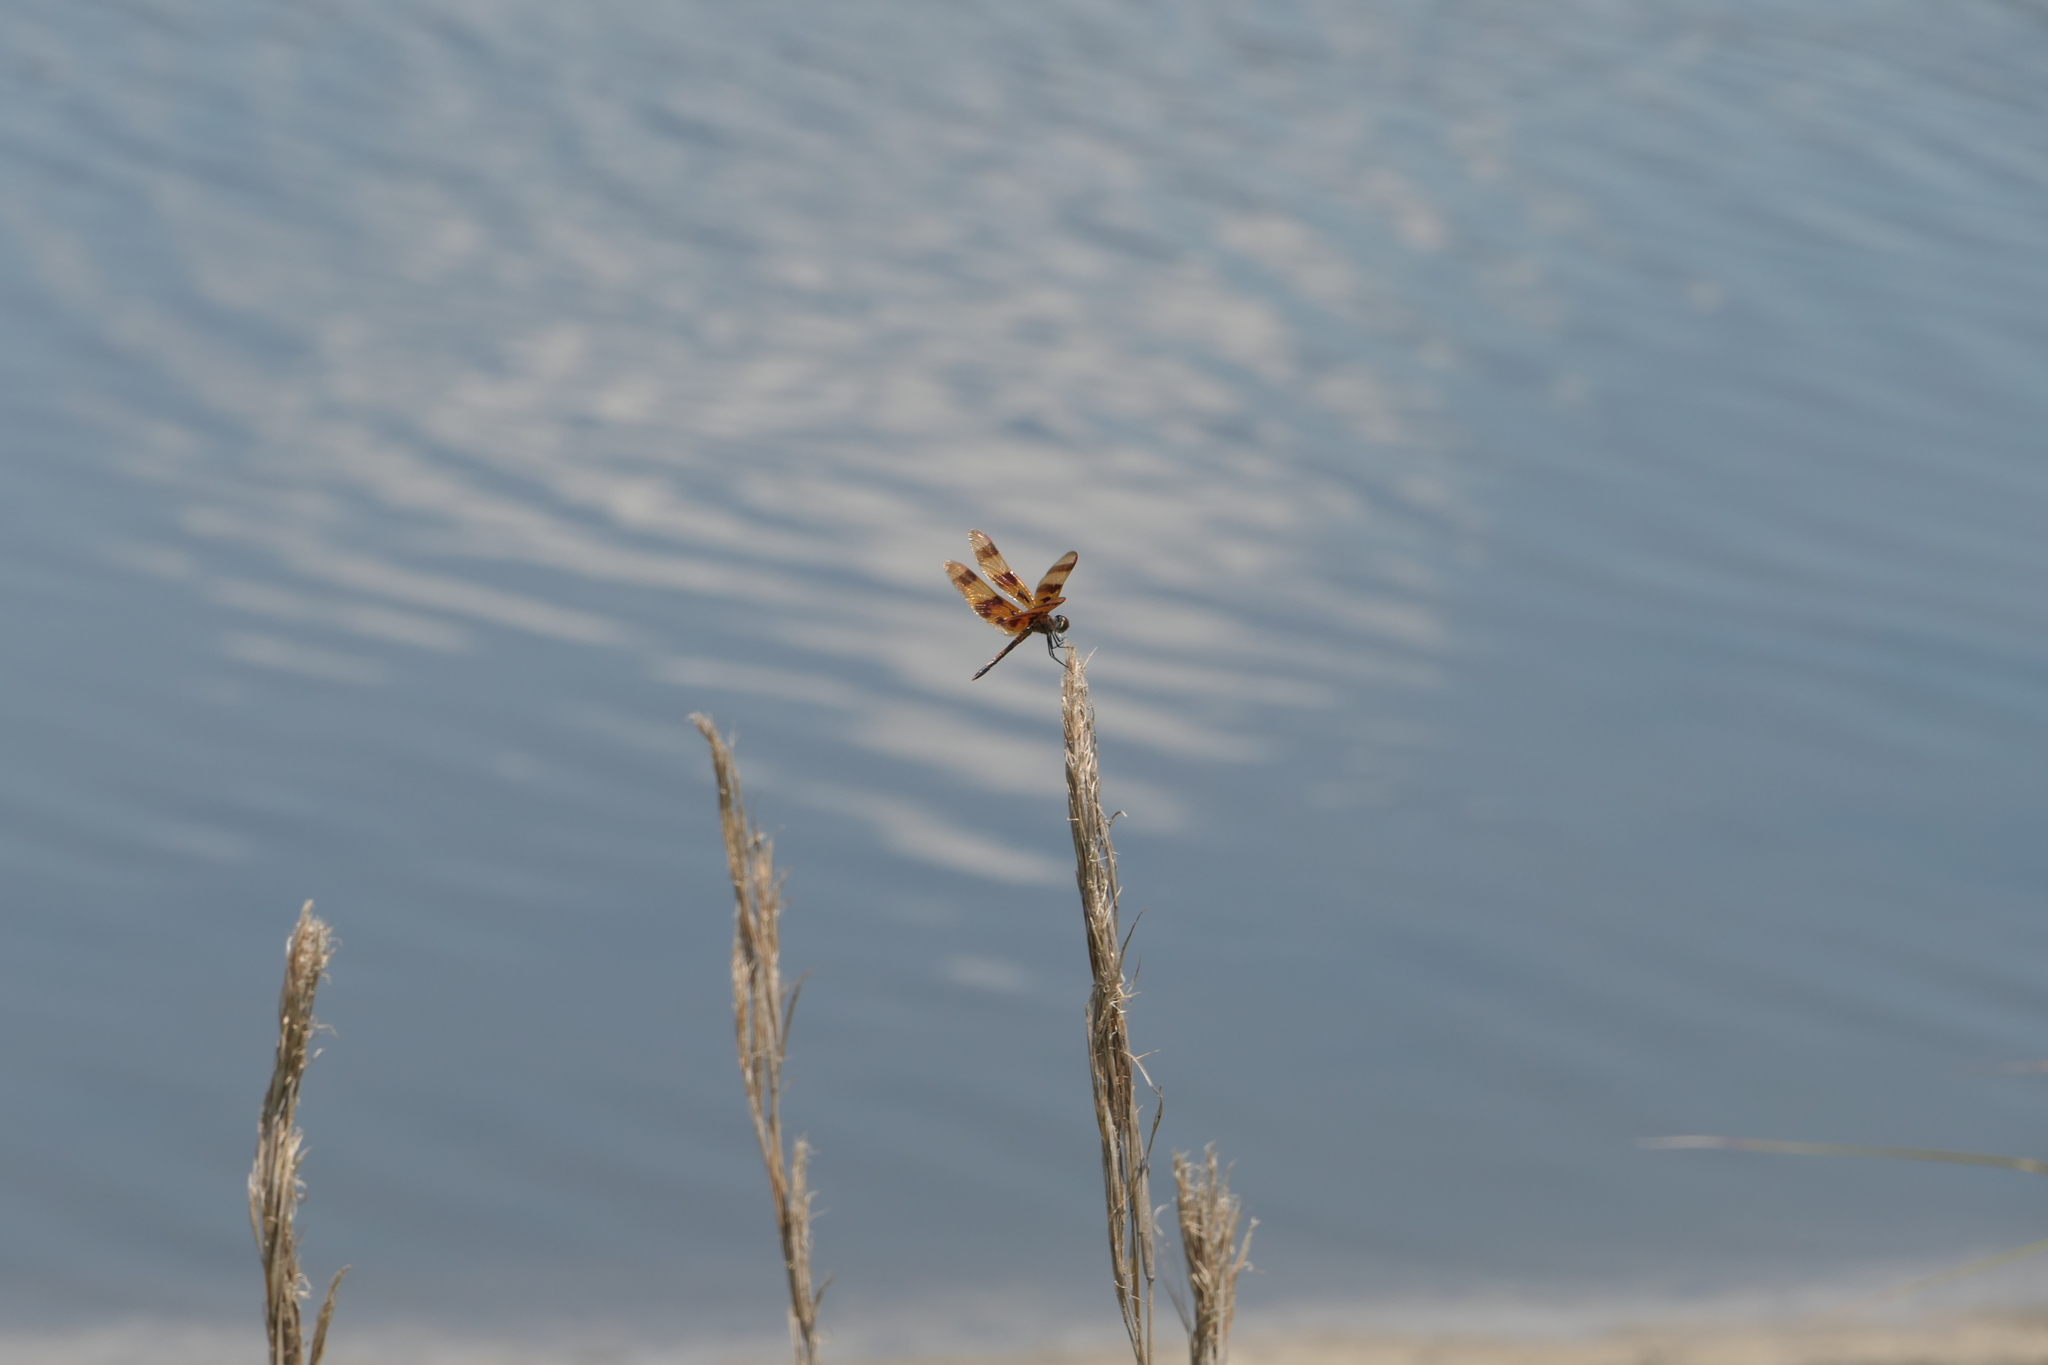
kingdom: Animalia
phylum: Arthropoda
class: Insecta
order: Odonata
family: Libellulidae
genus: Celithemis
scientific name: Celithemis eponina
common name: Halloween pennant
